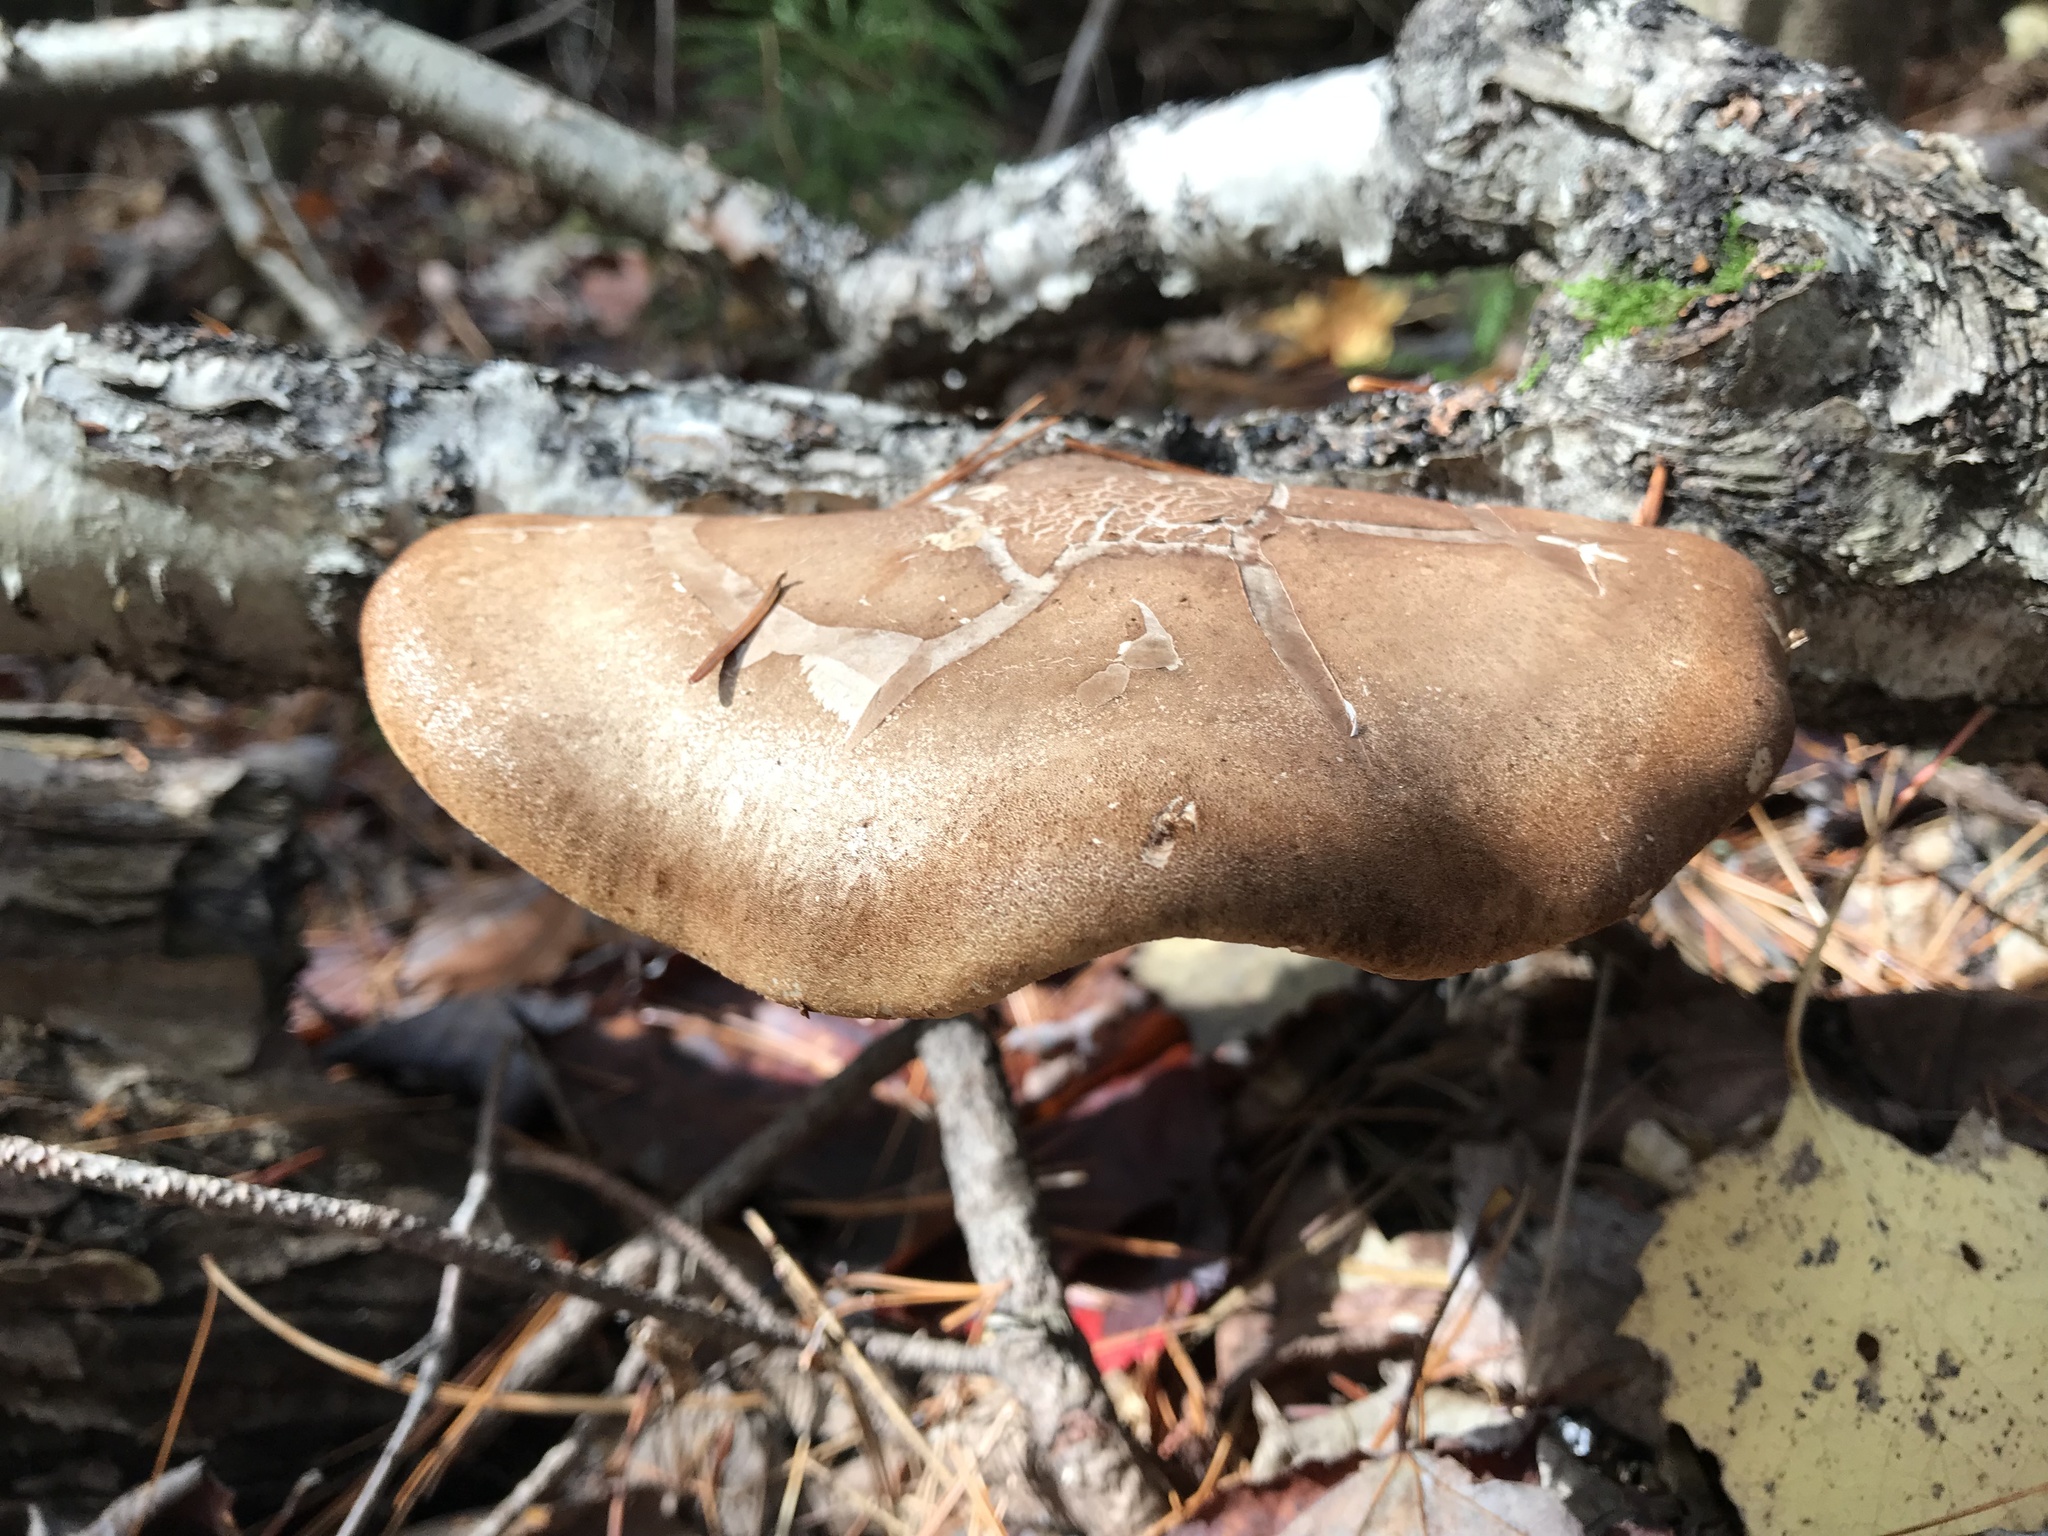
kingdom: Fungi
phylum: Basidiomycota
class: Agaricomycetes
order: Polyporales
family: Fomitopsidaceae
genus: Fomitopsis
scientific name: Fomitopsis betulina
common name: Birch polypore
